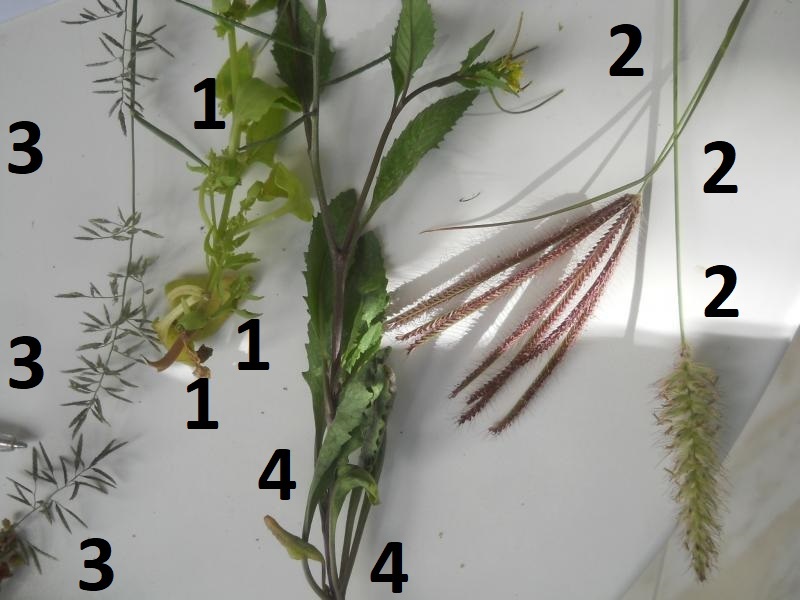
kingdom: Plantae
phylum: Tracheophyta
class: Liliopsida
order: Poales
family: Poaceae
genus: Chloris
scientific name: Chloris barbata
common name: Swollen fingergrass
